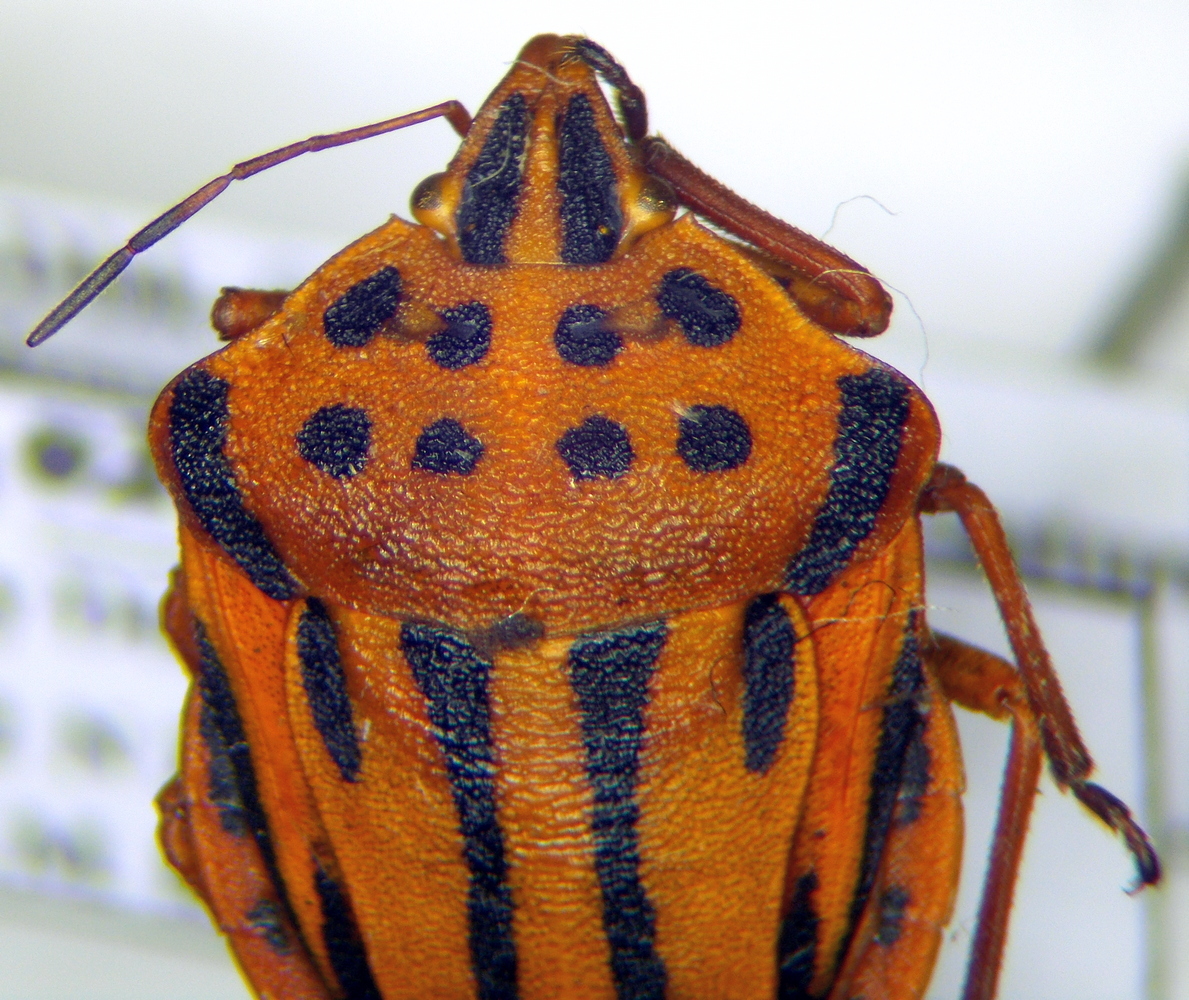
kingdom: Animalia
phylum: Arthropoda
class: Insecta
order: Hemiptera
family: Pentatomidae
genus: Graphosoma
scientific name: Graphosoma semipunctatum
